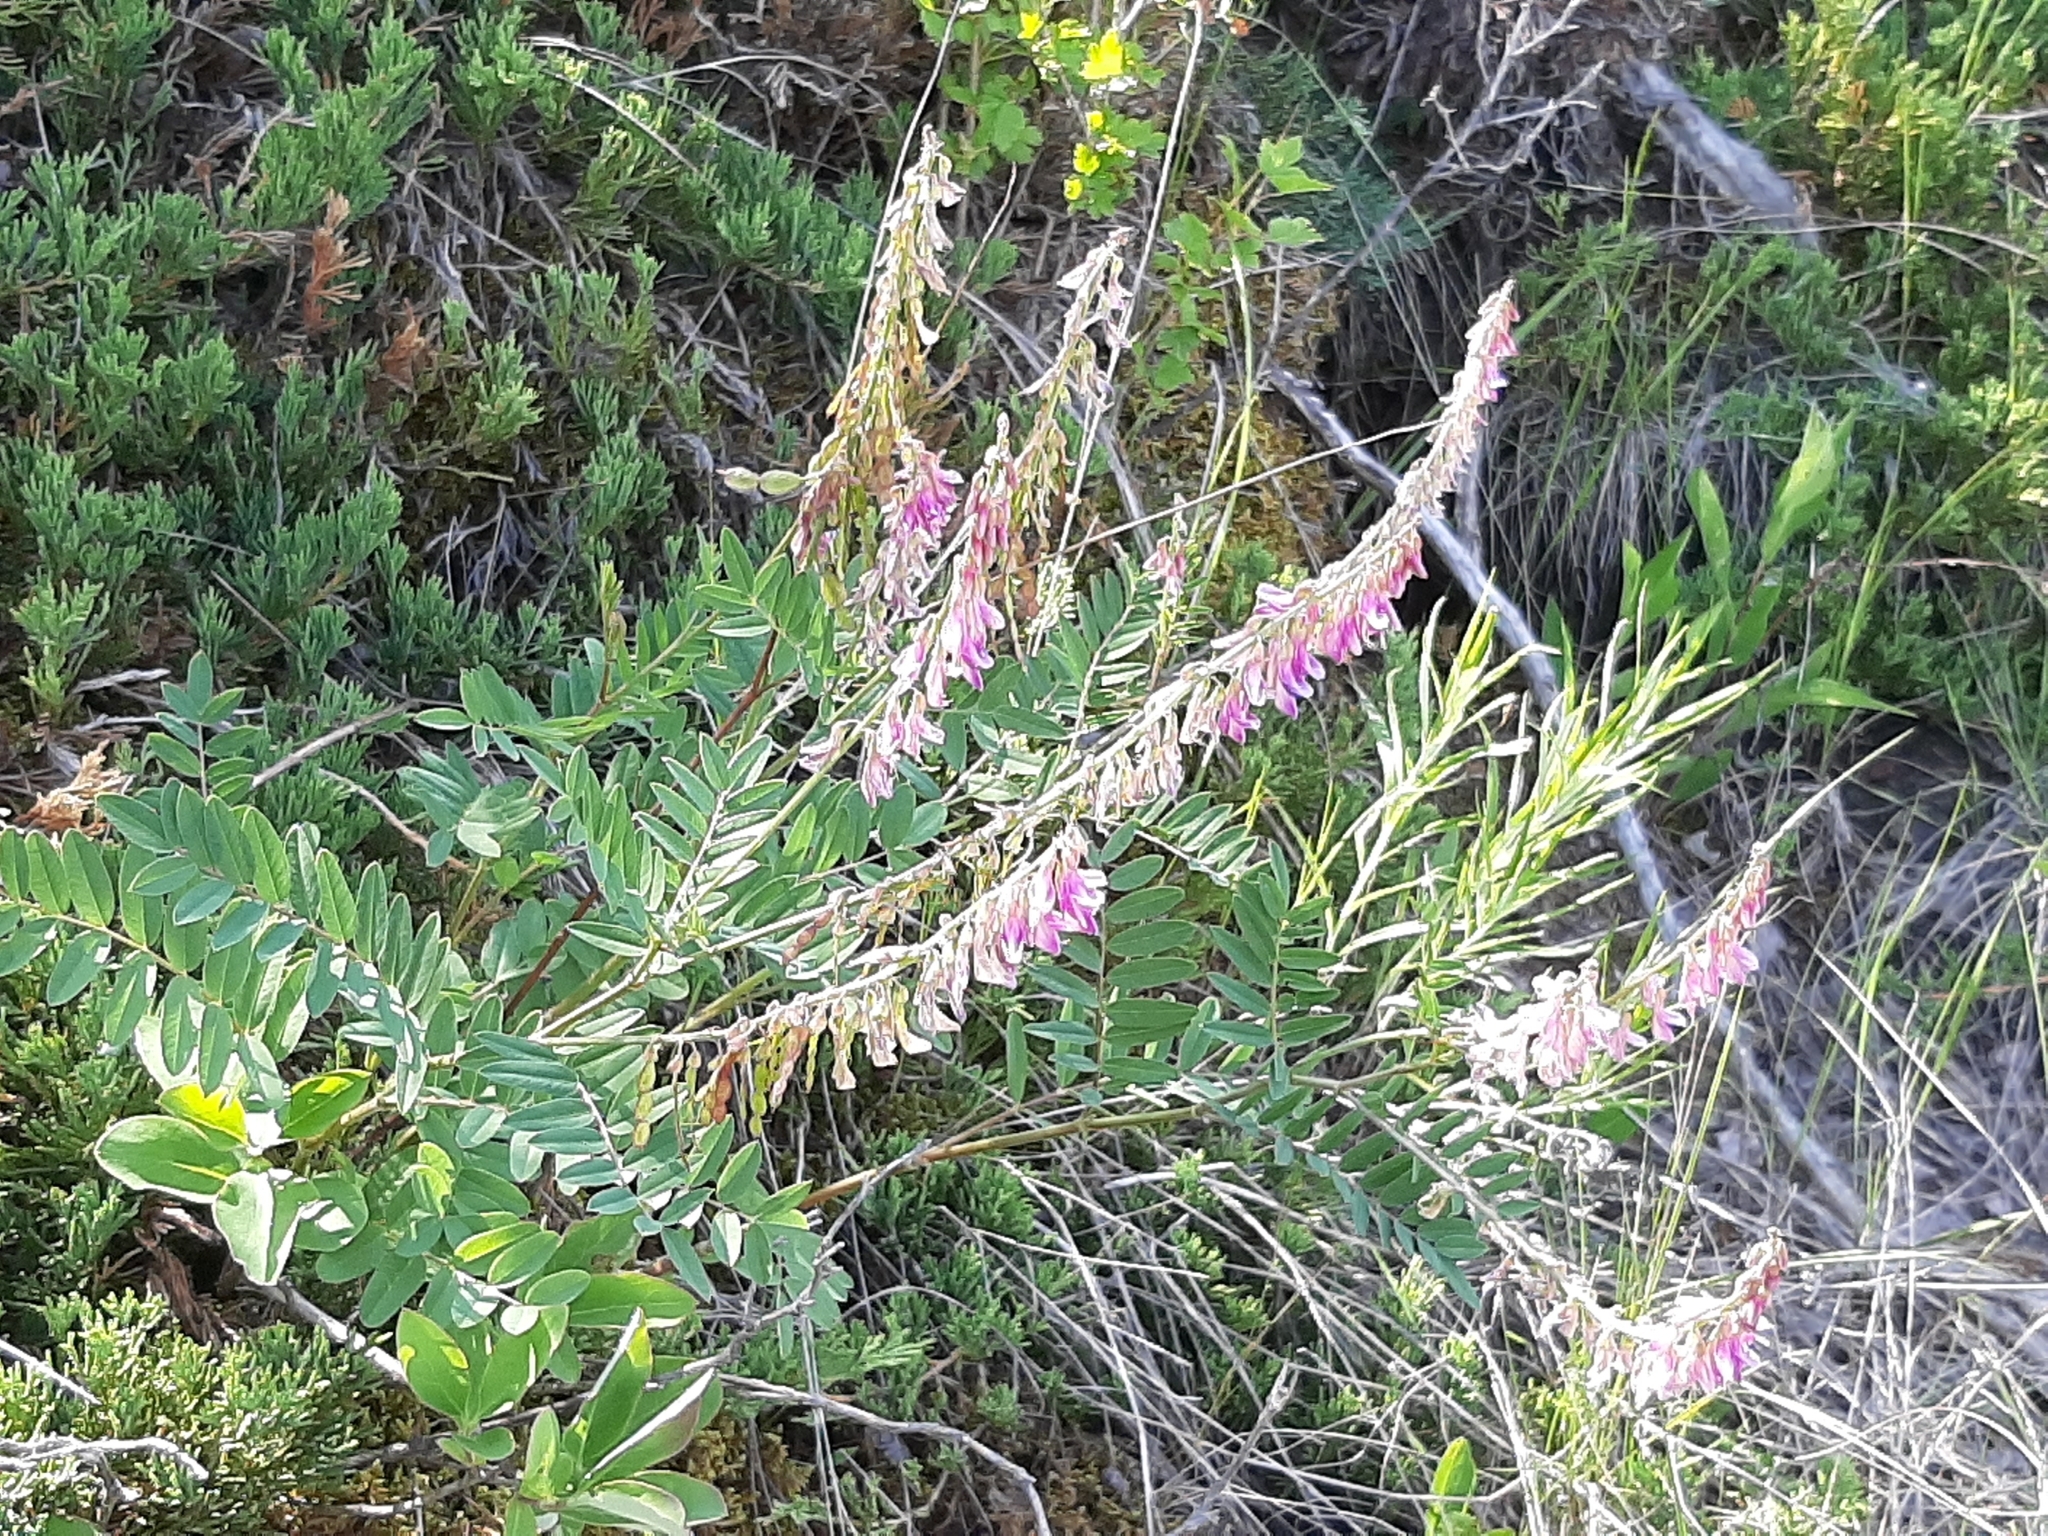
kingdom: Plantae
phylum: Tracheophyta
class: Magnoliopsida
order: Fabales
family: Fabaceae
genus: Hedysarum
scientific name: Hedysarum alpinum
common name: Alpine sweet-vetch
